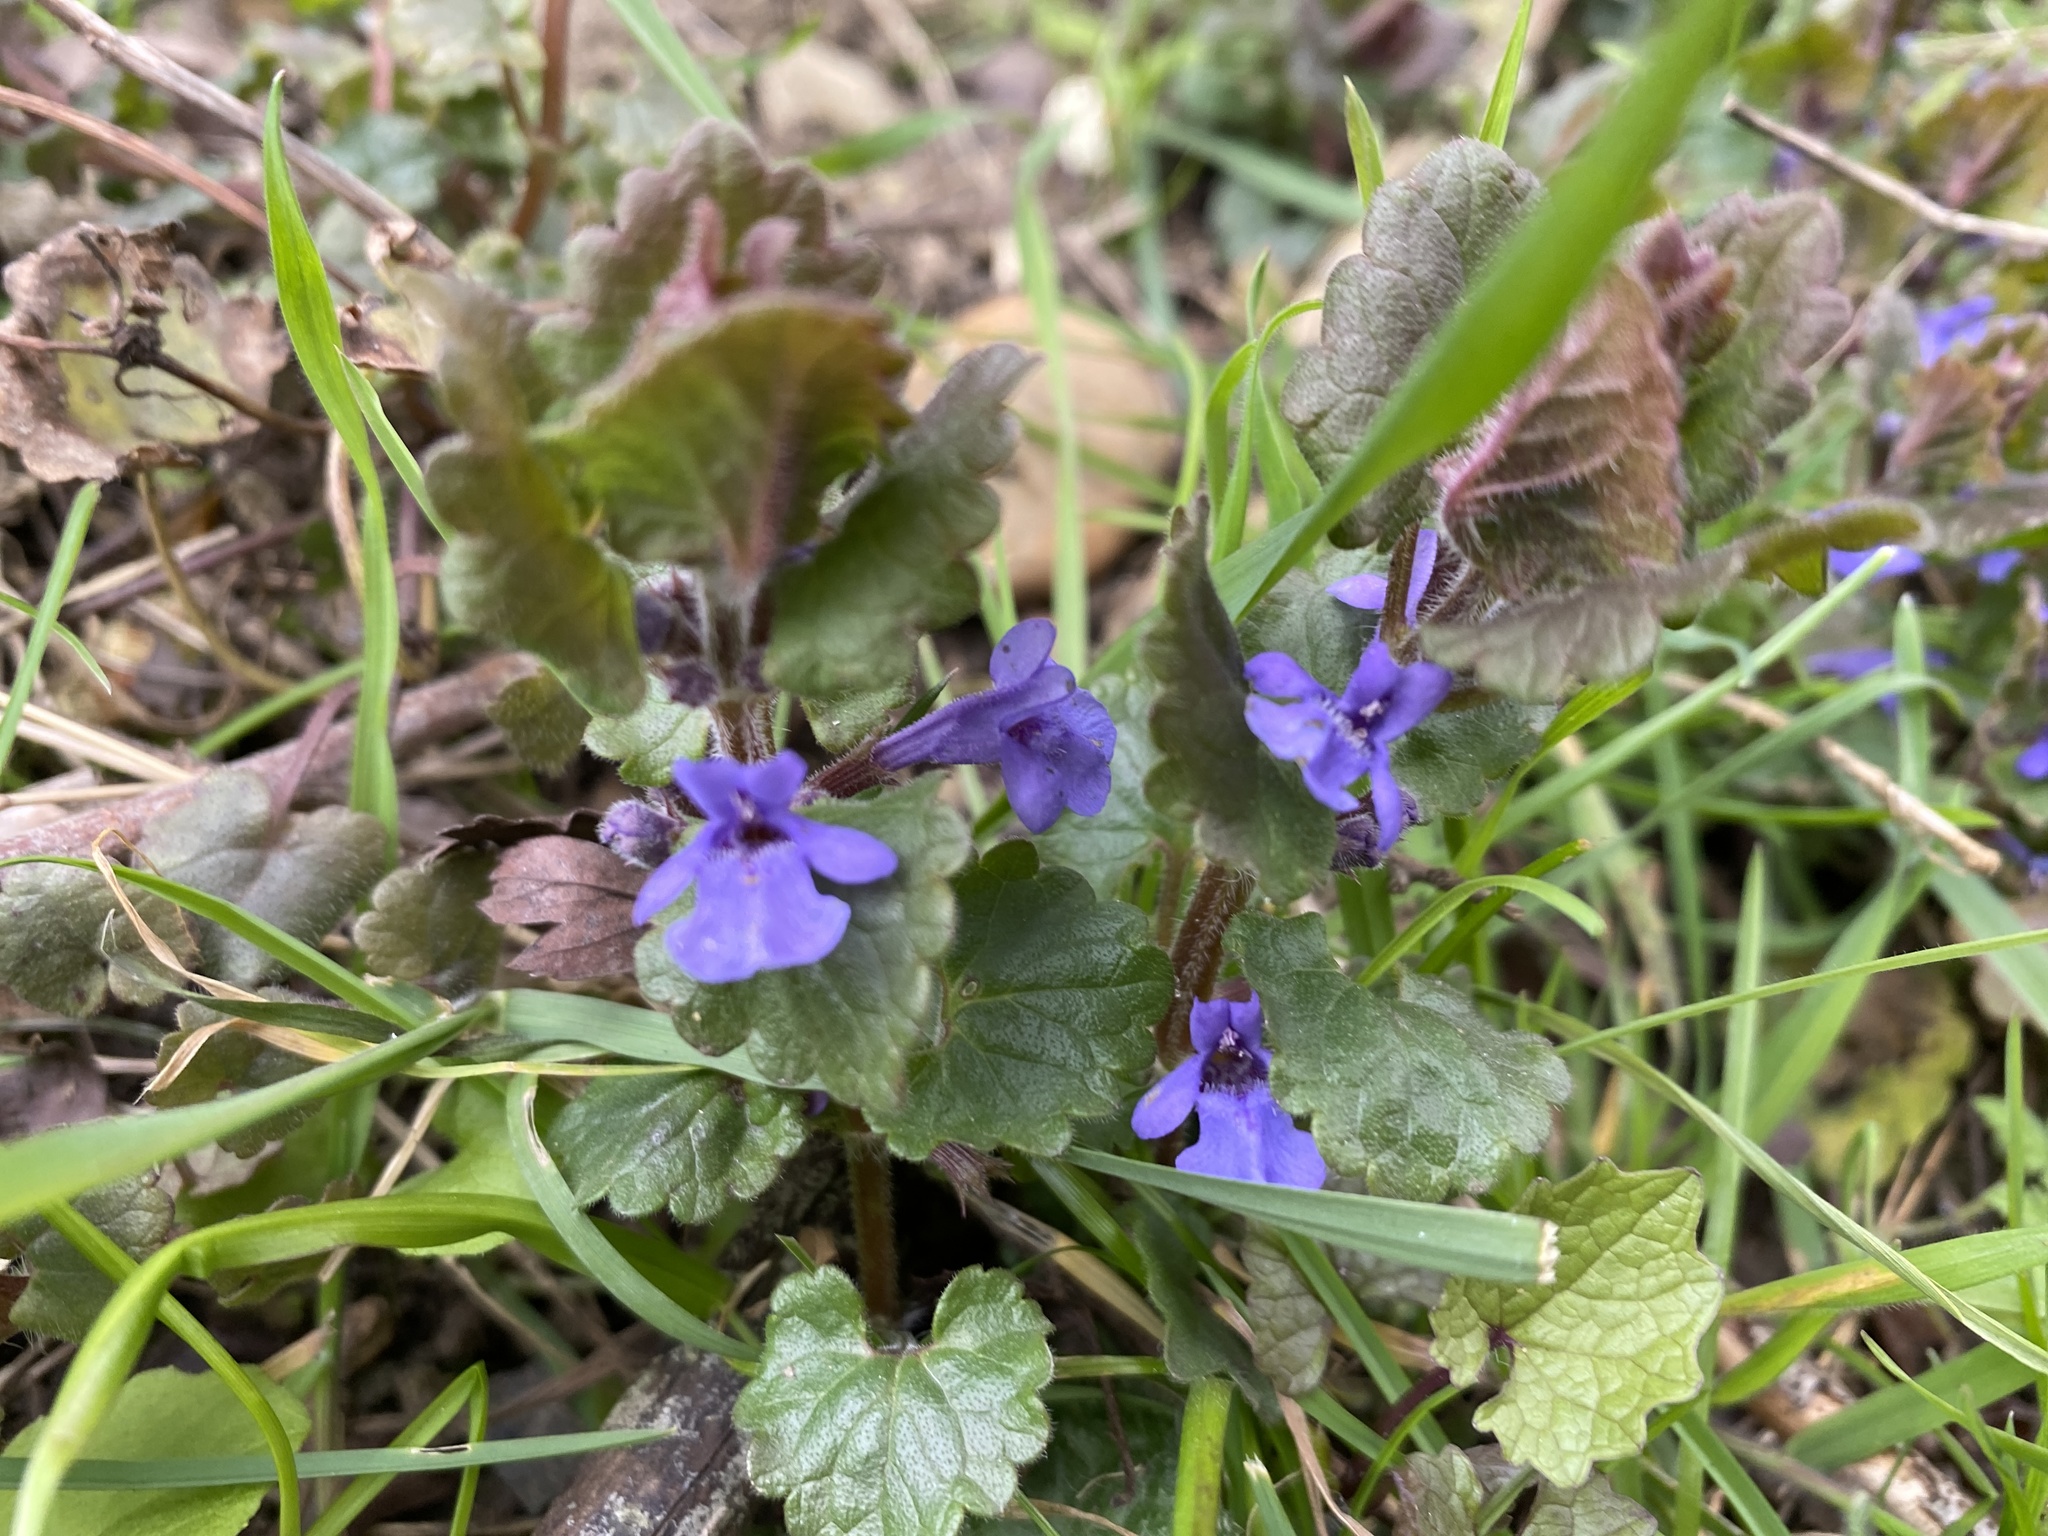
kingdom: Plantae
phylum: Tracheophyta
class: Magnoliopsida
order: Lamiales
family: Lamiaceae
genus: Glechoma
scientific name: Glechoma hederacea
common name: Ground ivy
